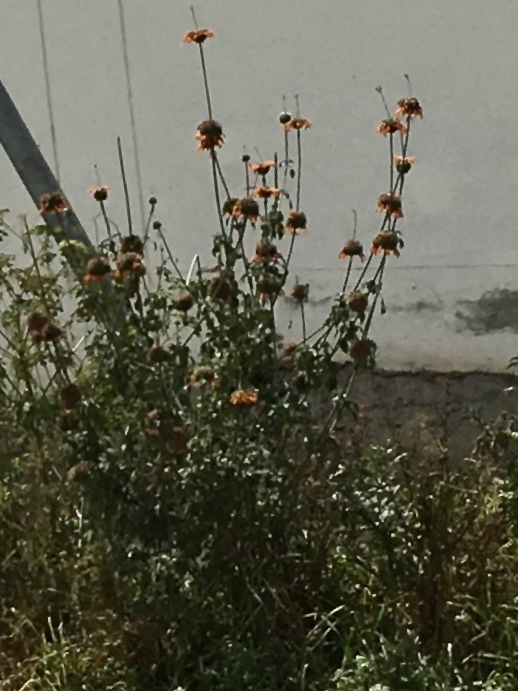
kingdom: Plantae
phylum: Tracheophyta
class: Magnoliopsida
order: Lamiales
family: Lamiaceae
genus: Leonotis
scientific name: Leonotis nepetifolia
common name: Christmas candlestick
